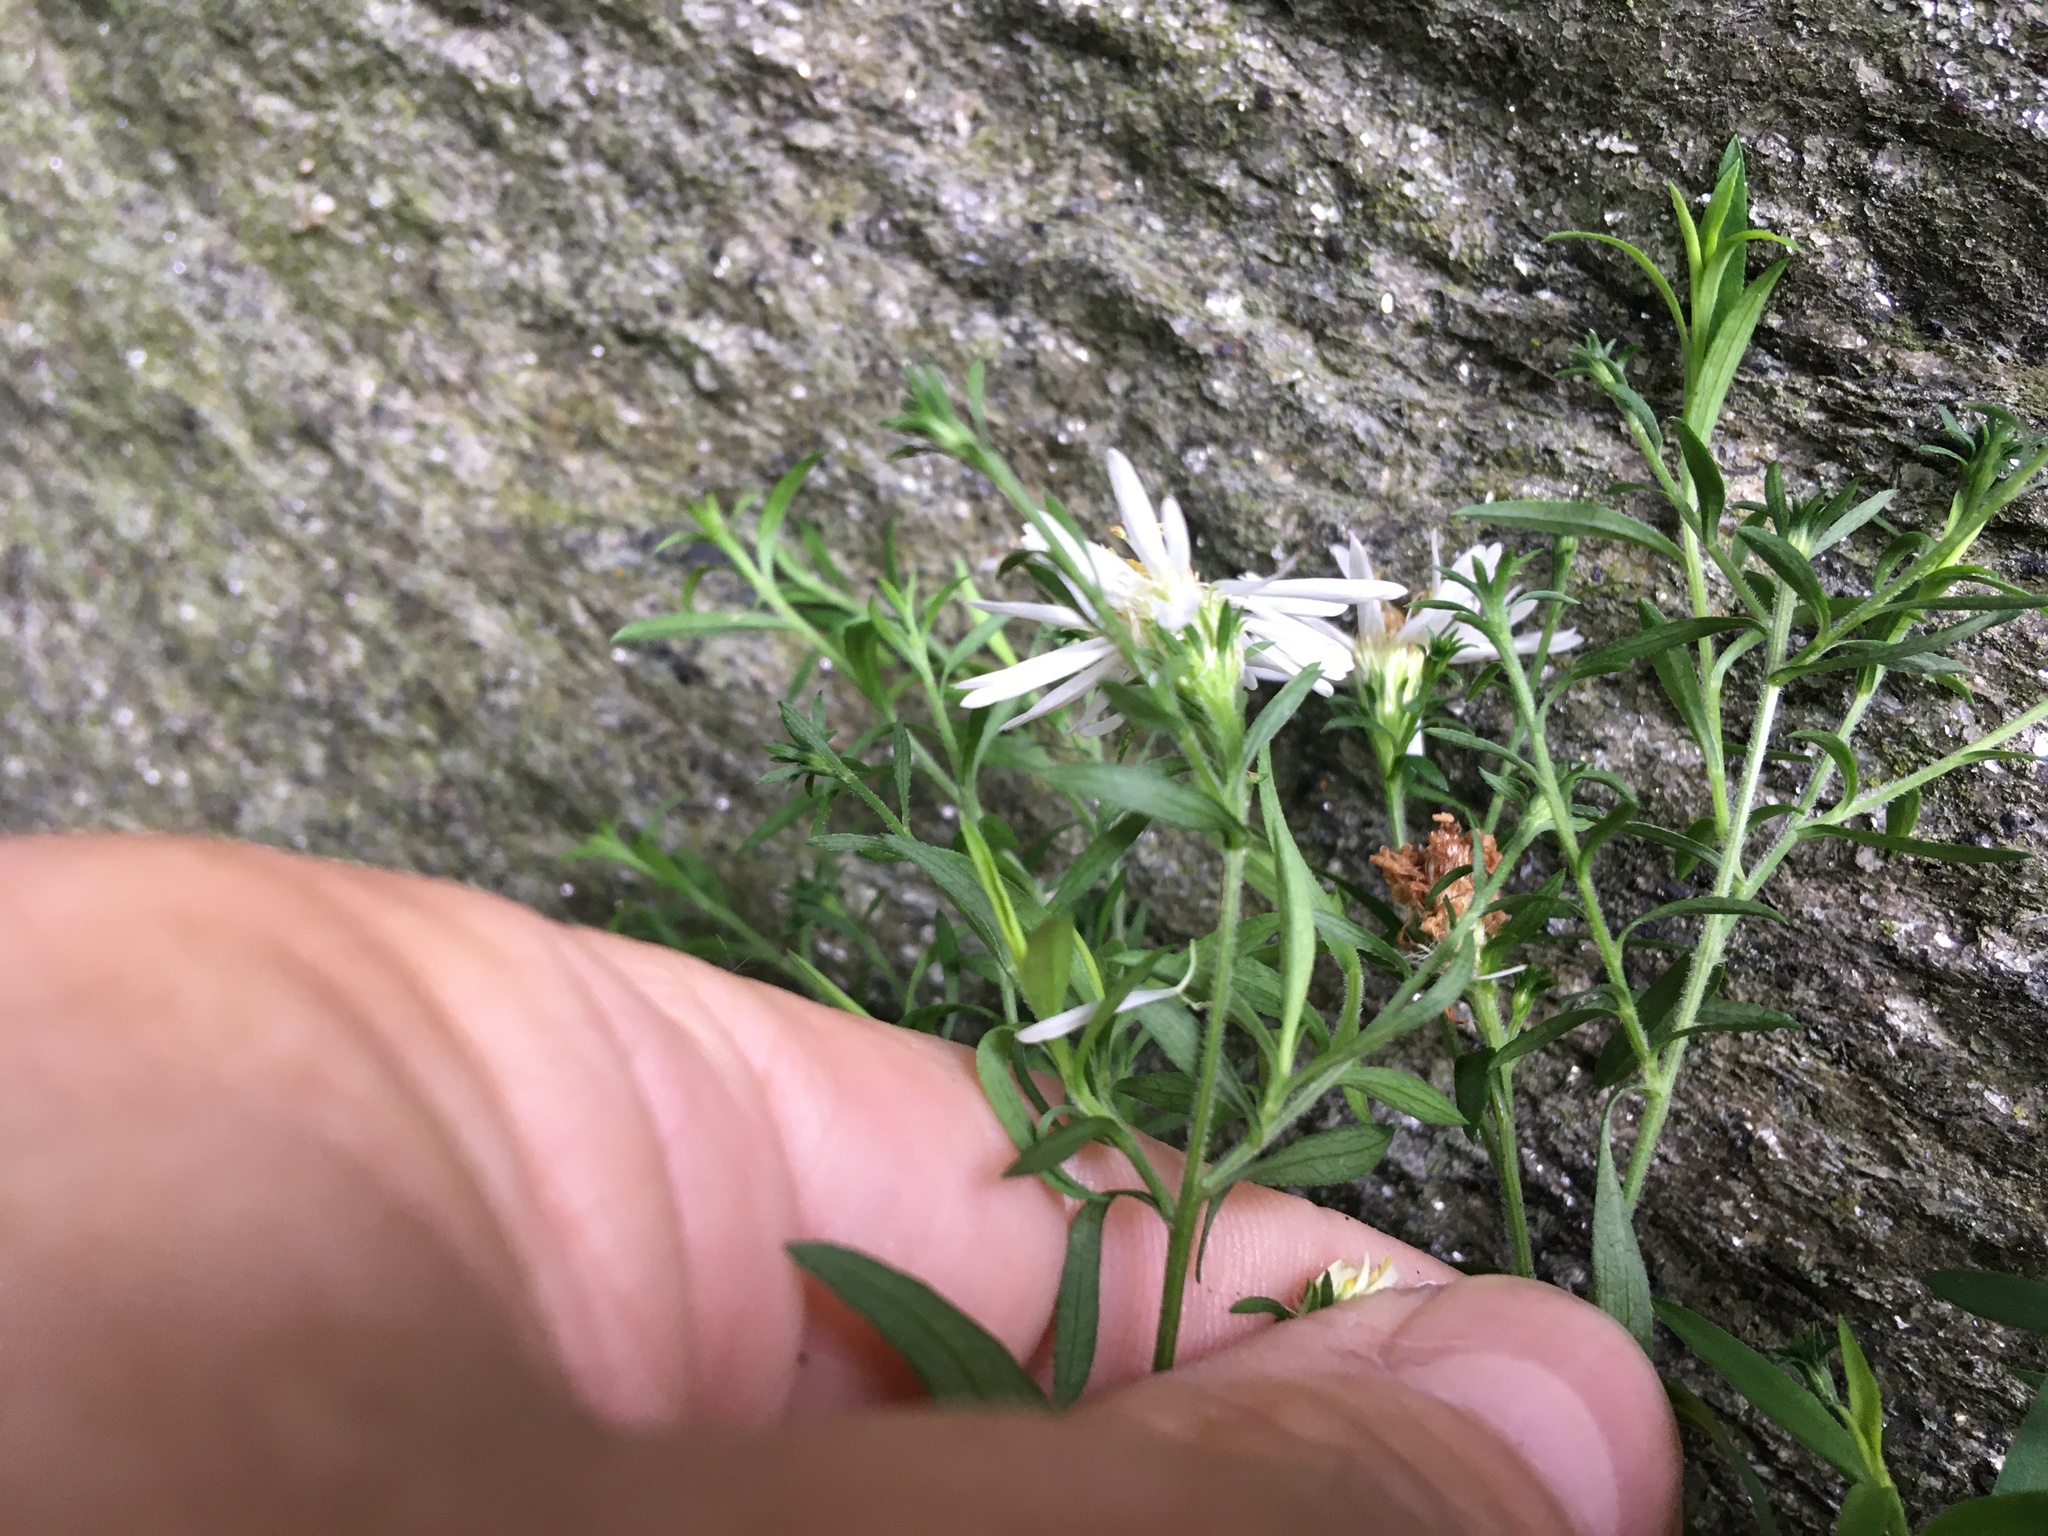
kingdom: Plantae
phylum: Tracheophyta
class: Magnoliopsida
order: Asterales
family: Asteraceae
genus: Symphyotrichum
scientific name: Symphyotrichum lanceolatum
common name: Panicled aster
